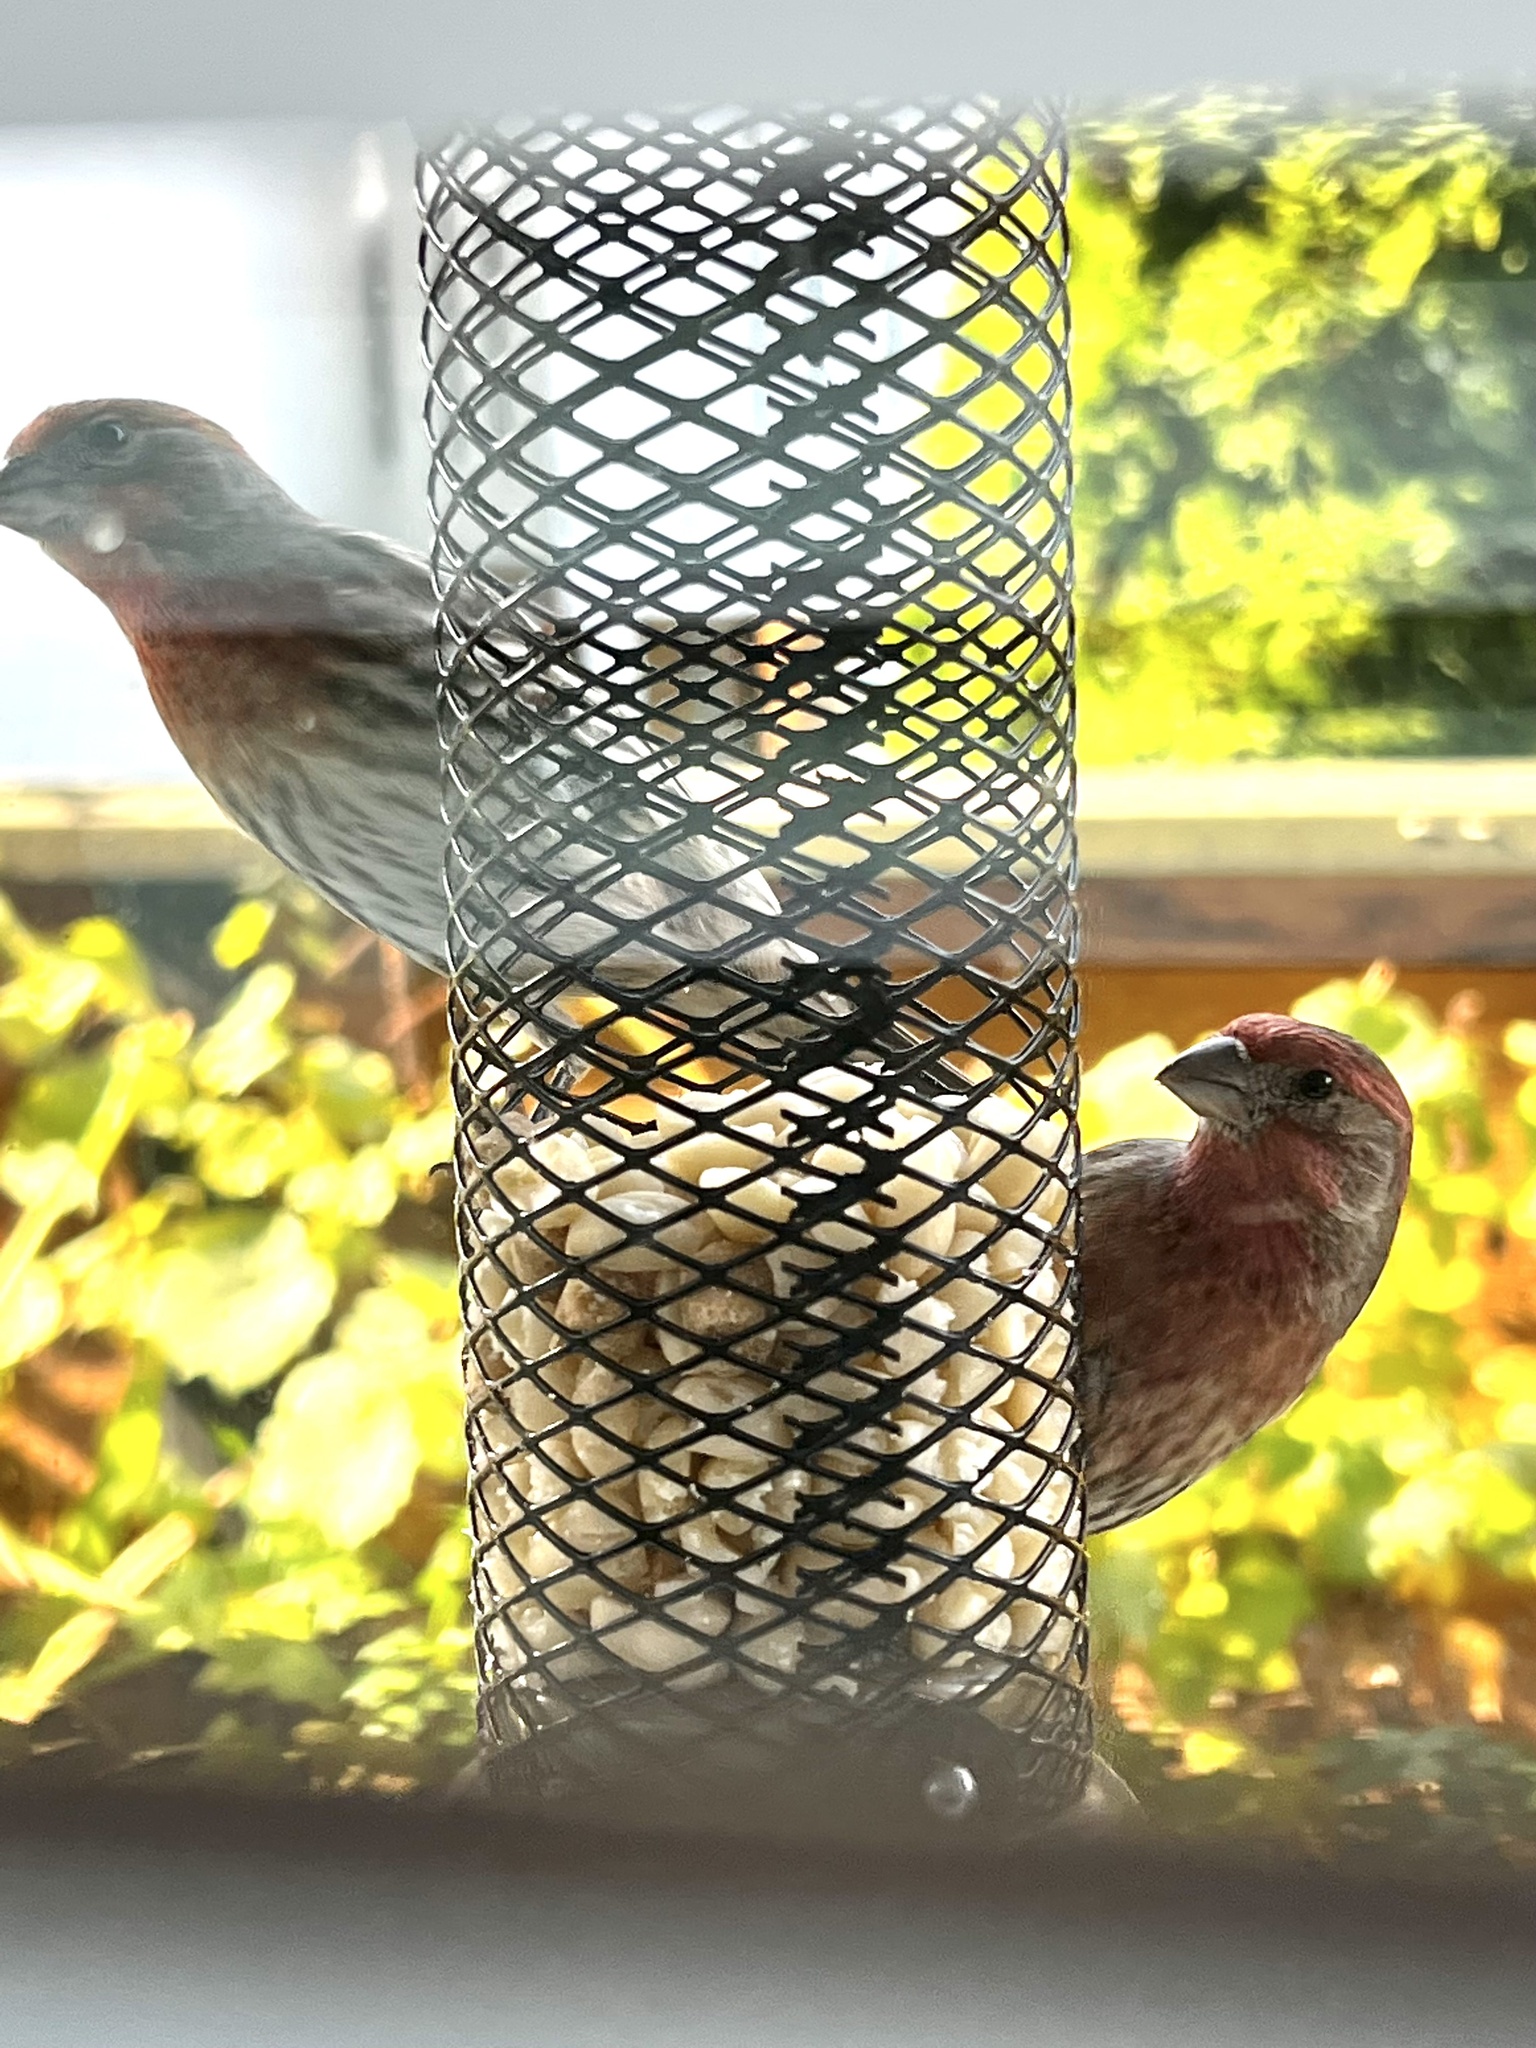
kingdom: Animalia
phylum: Chordata
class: Aves
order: Passeriformes
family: Fringillidae
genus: Haemorhous
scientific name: Haemorhous mexicanus
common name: House finch
